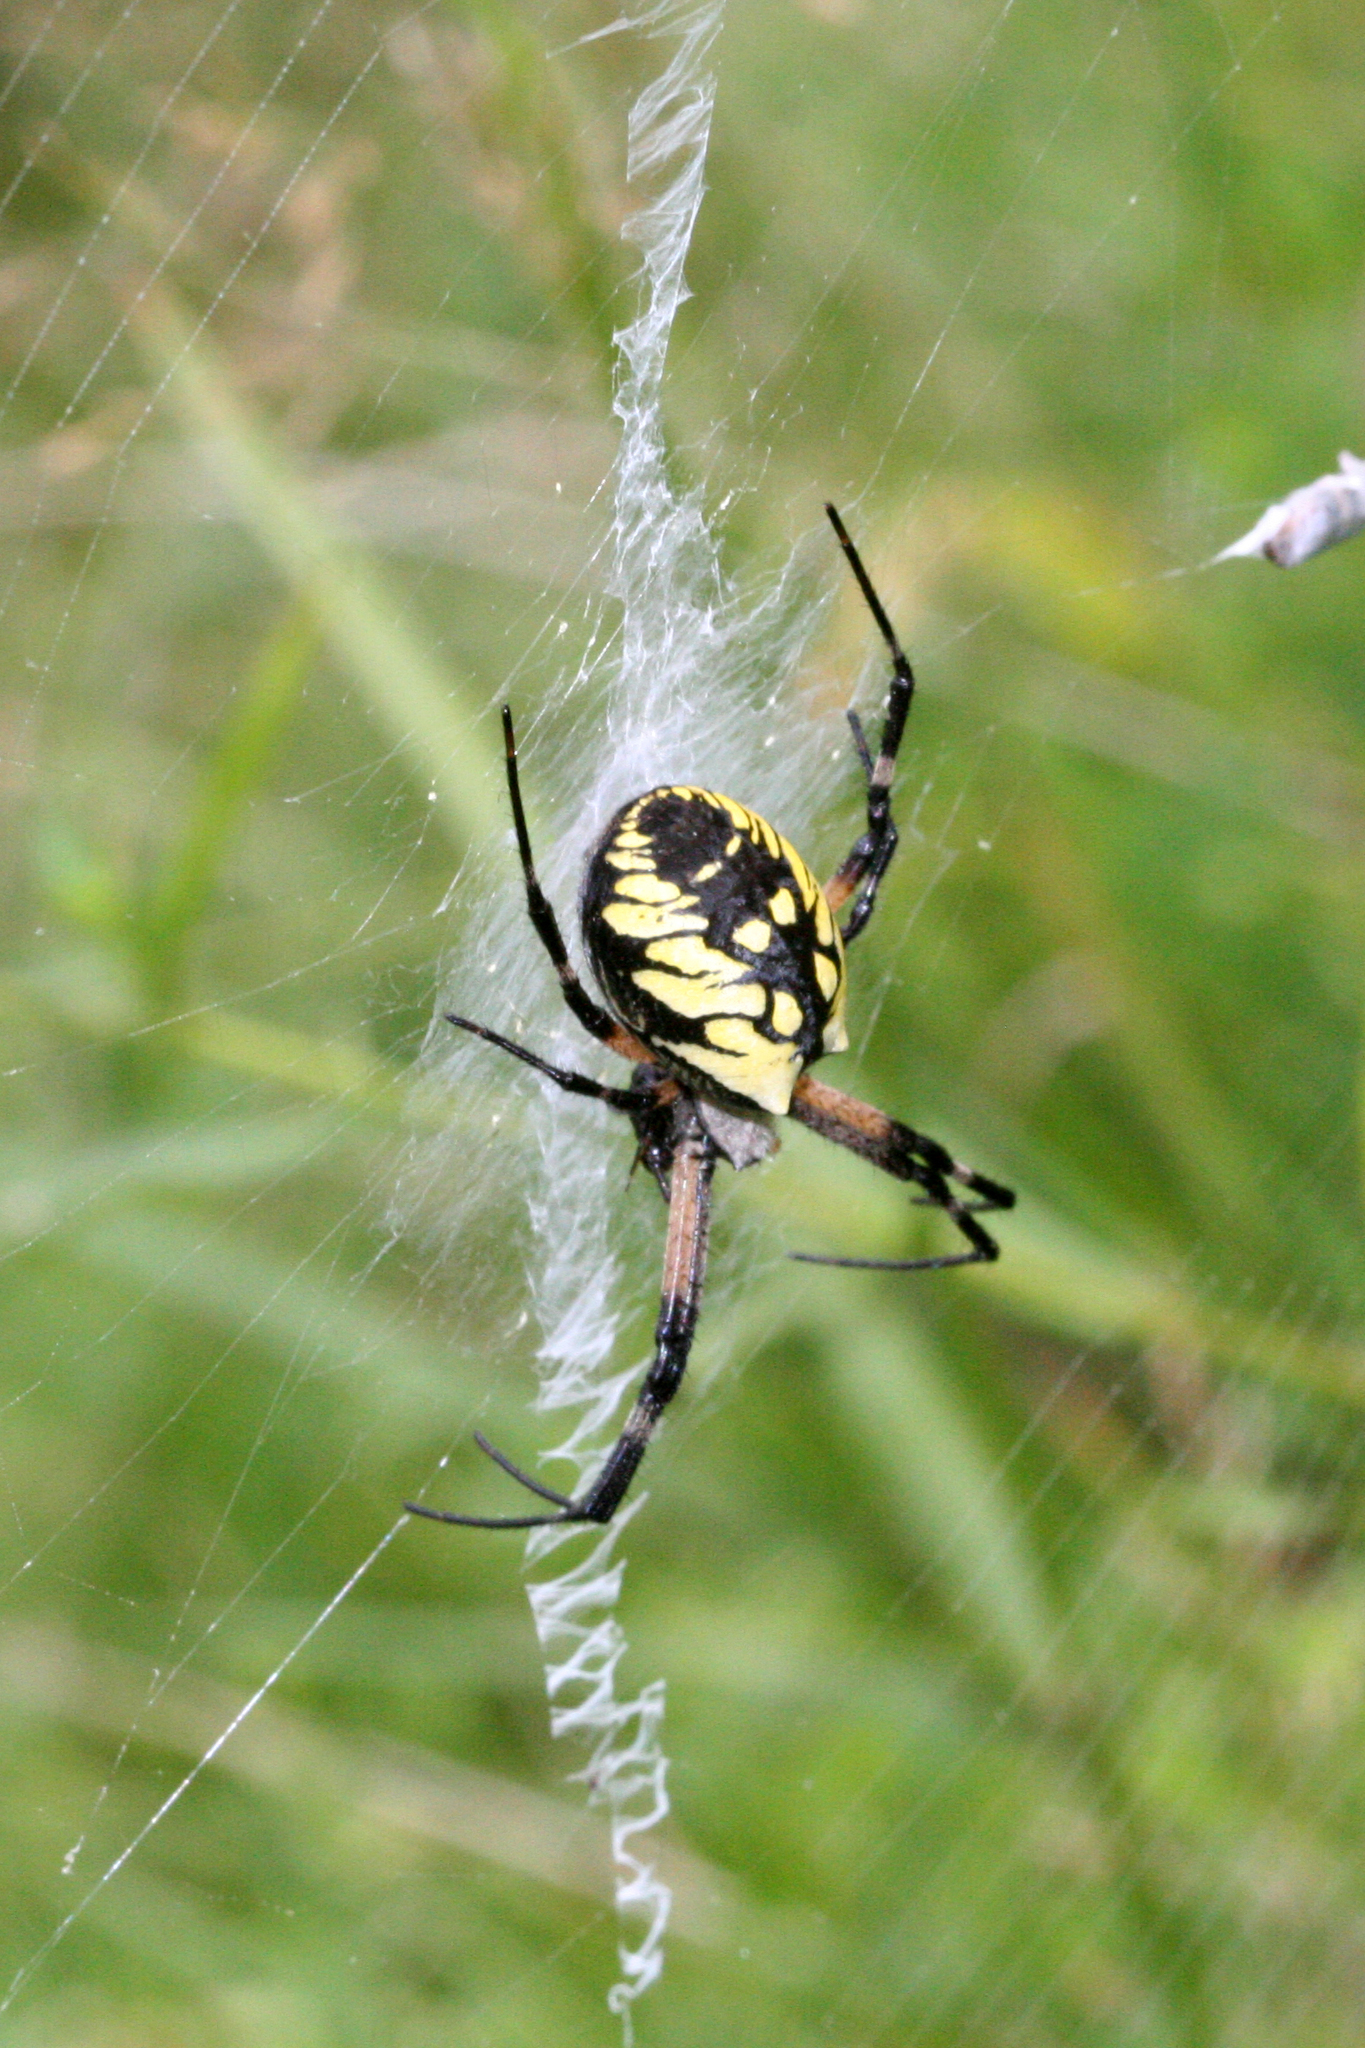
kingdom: Animalia
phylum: Arthropoda
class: Arachnida
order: Araneae
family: Araneidae
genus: Argiope
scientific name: Argiope aurantia
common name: Orb weavers
